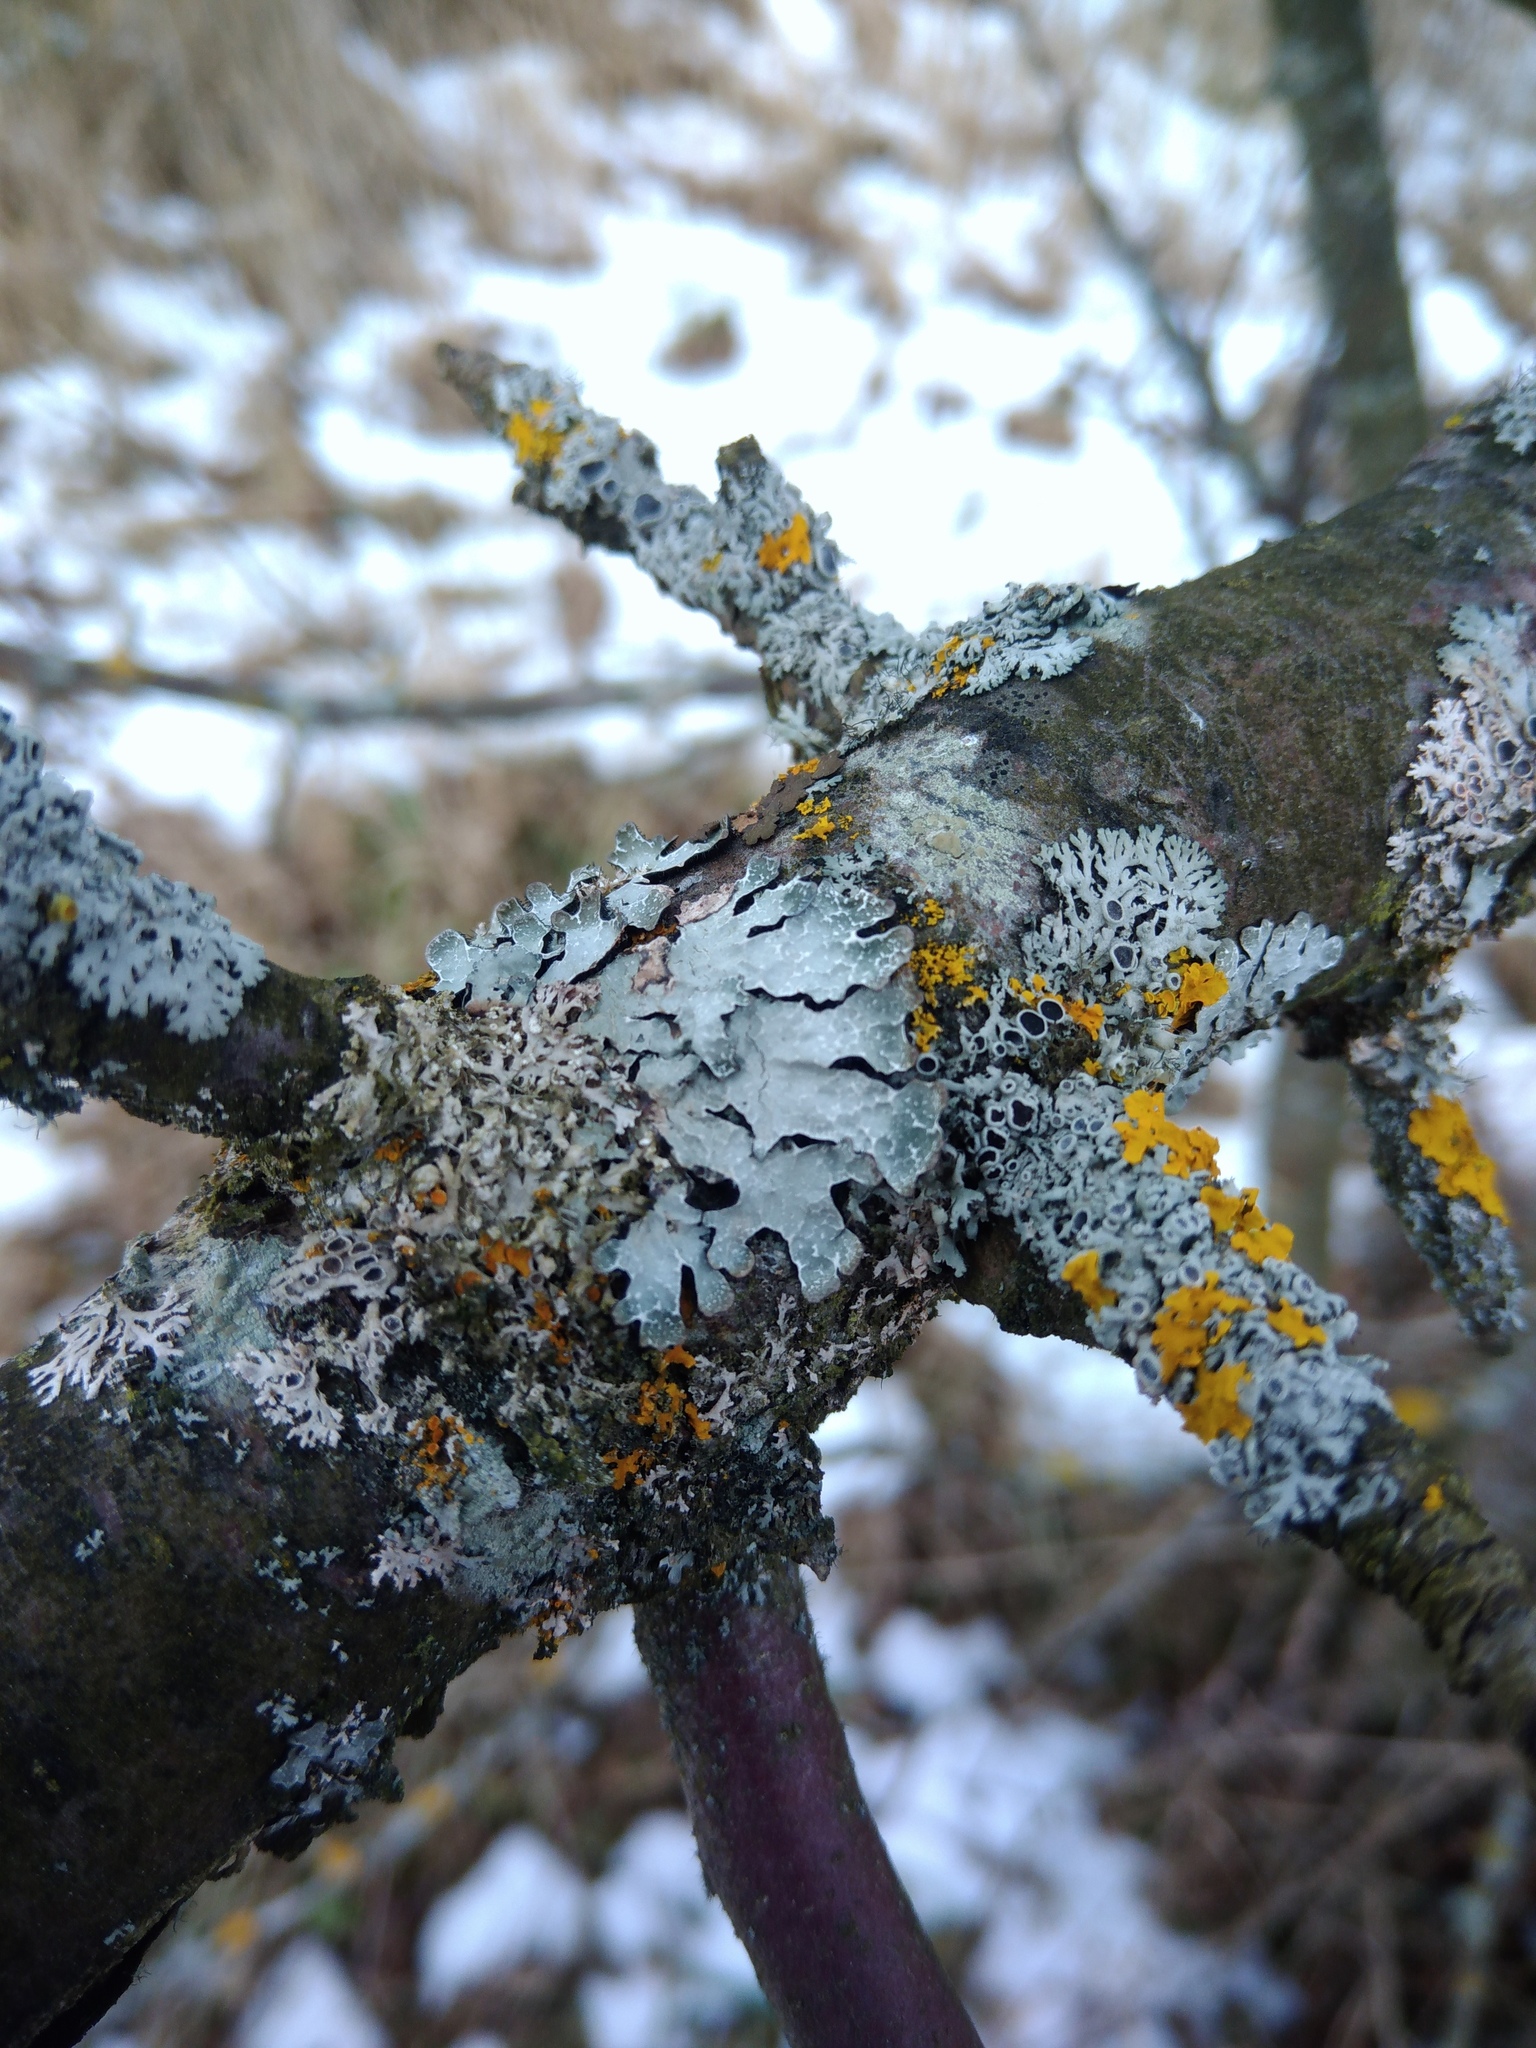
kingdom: Fungi
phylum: Ascomycota
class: Lecanoromycetes
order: Lecanorales
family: Parmeliaceae
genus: Parmelia
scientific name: Parmelia sulcata
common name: Netted shield lichen
